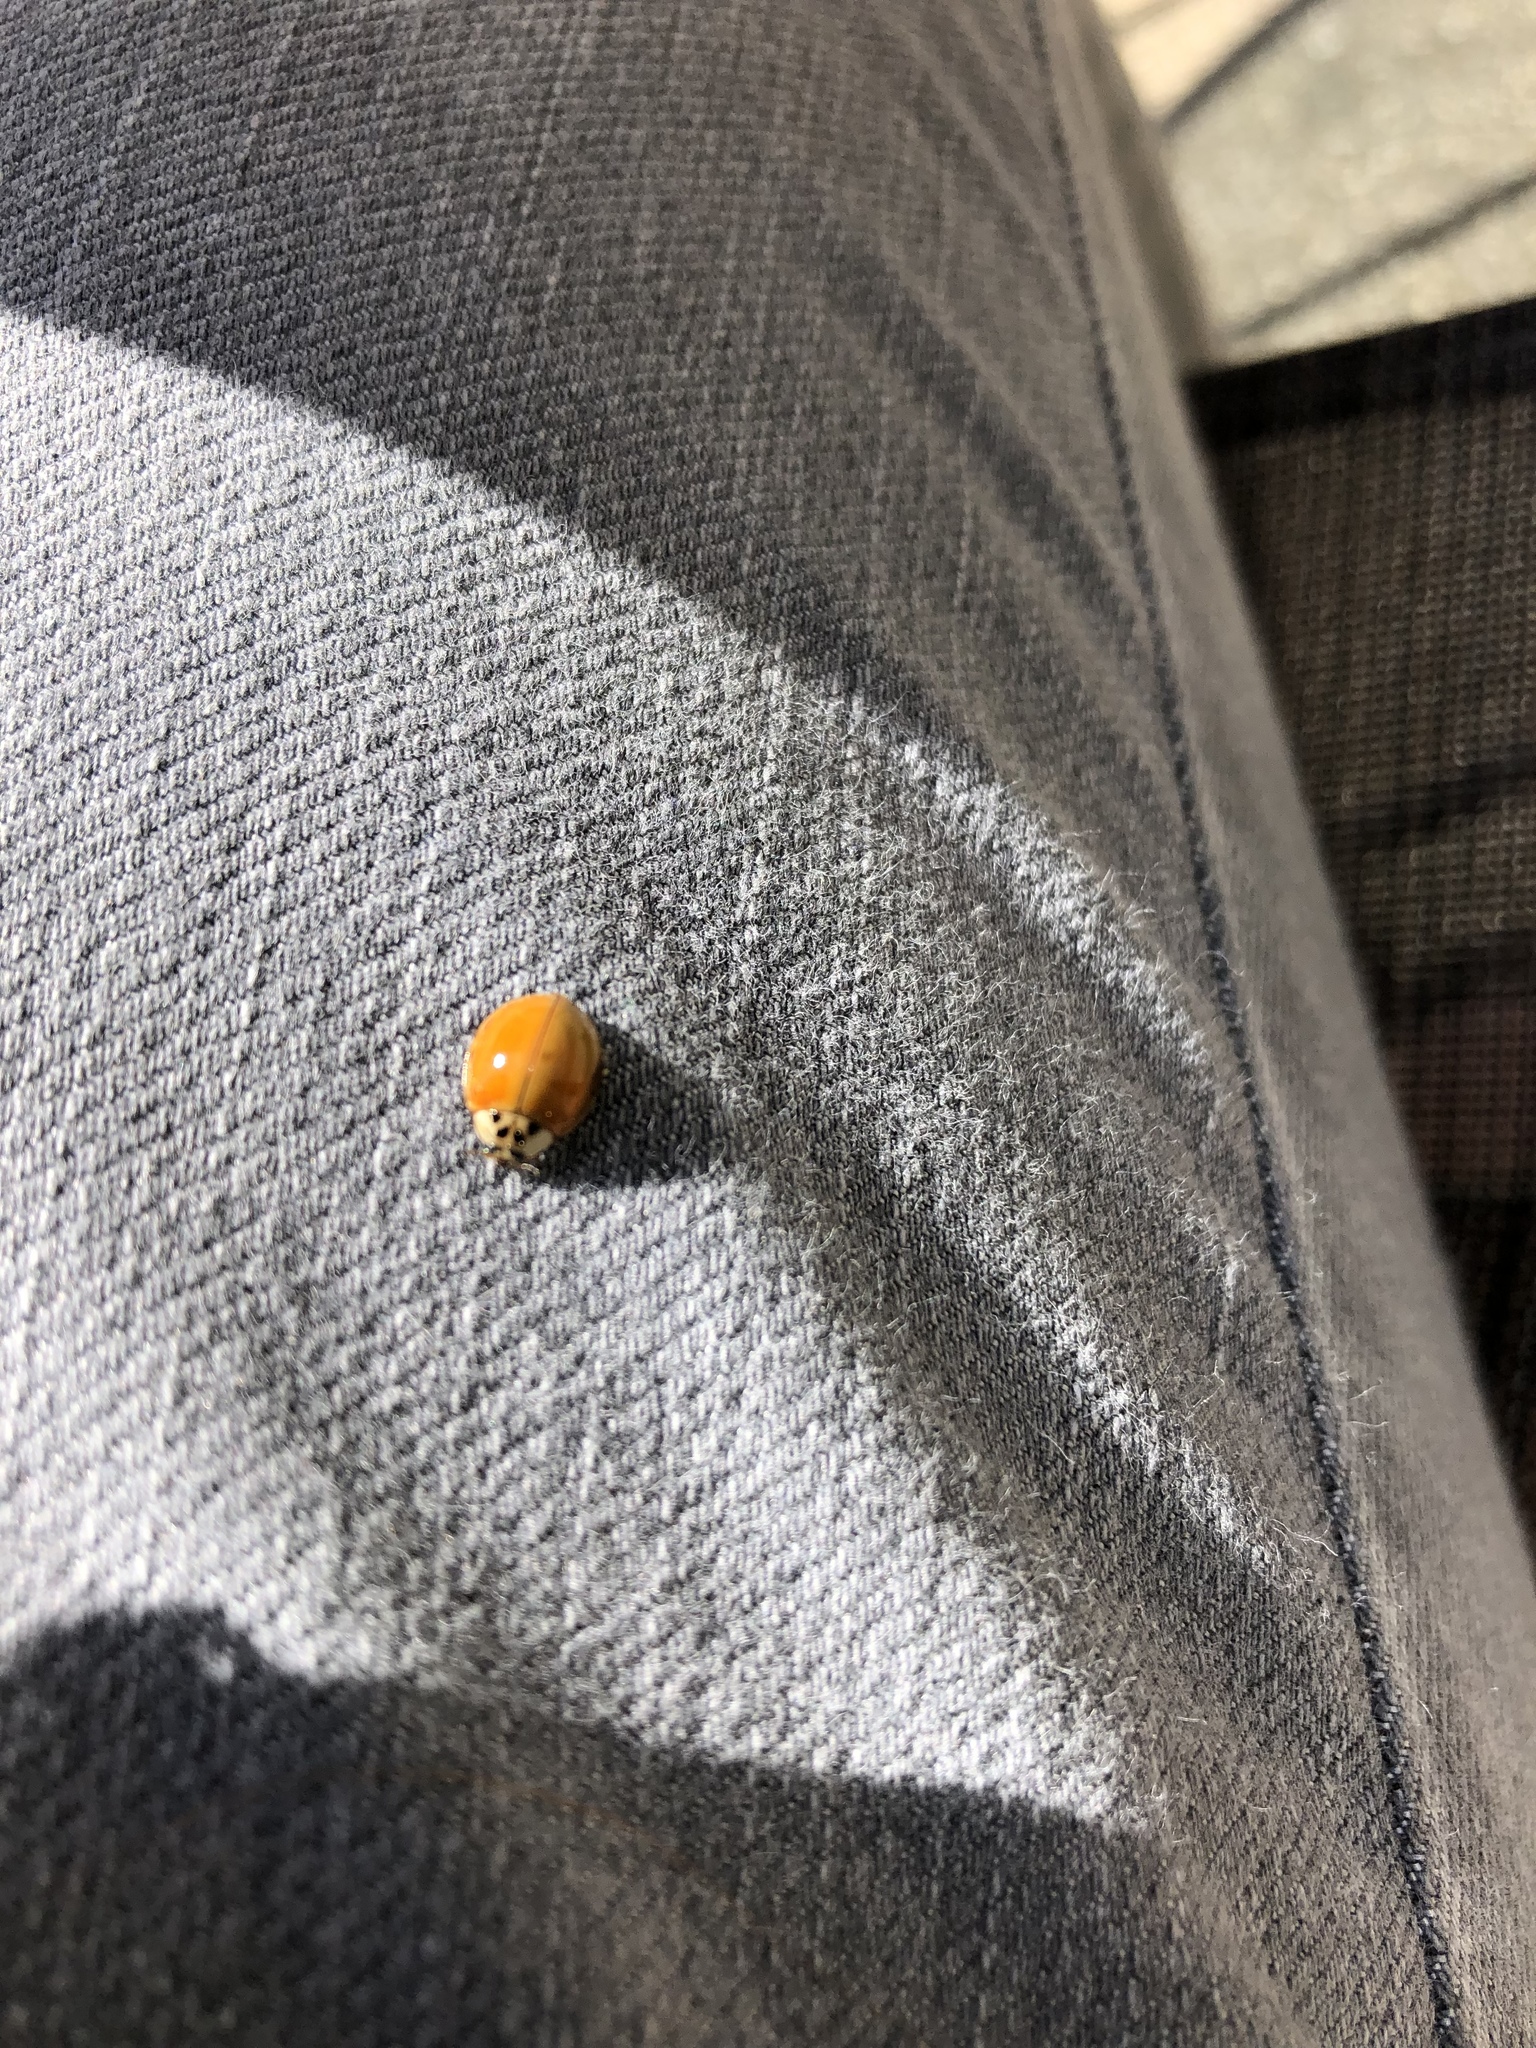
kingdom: Animalia
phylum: Arthropoda
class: Insecta
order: Coleoptera
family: Coccinellidae
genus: Harmonia
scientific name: Harmonia axyridis
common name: Harlequin ladybird
